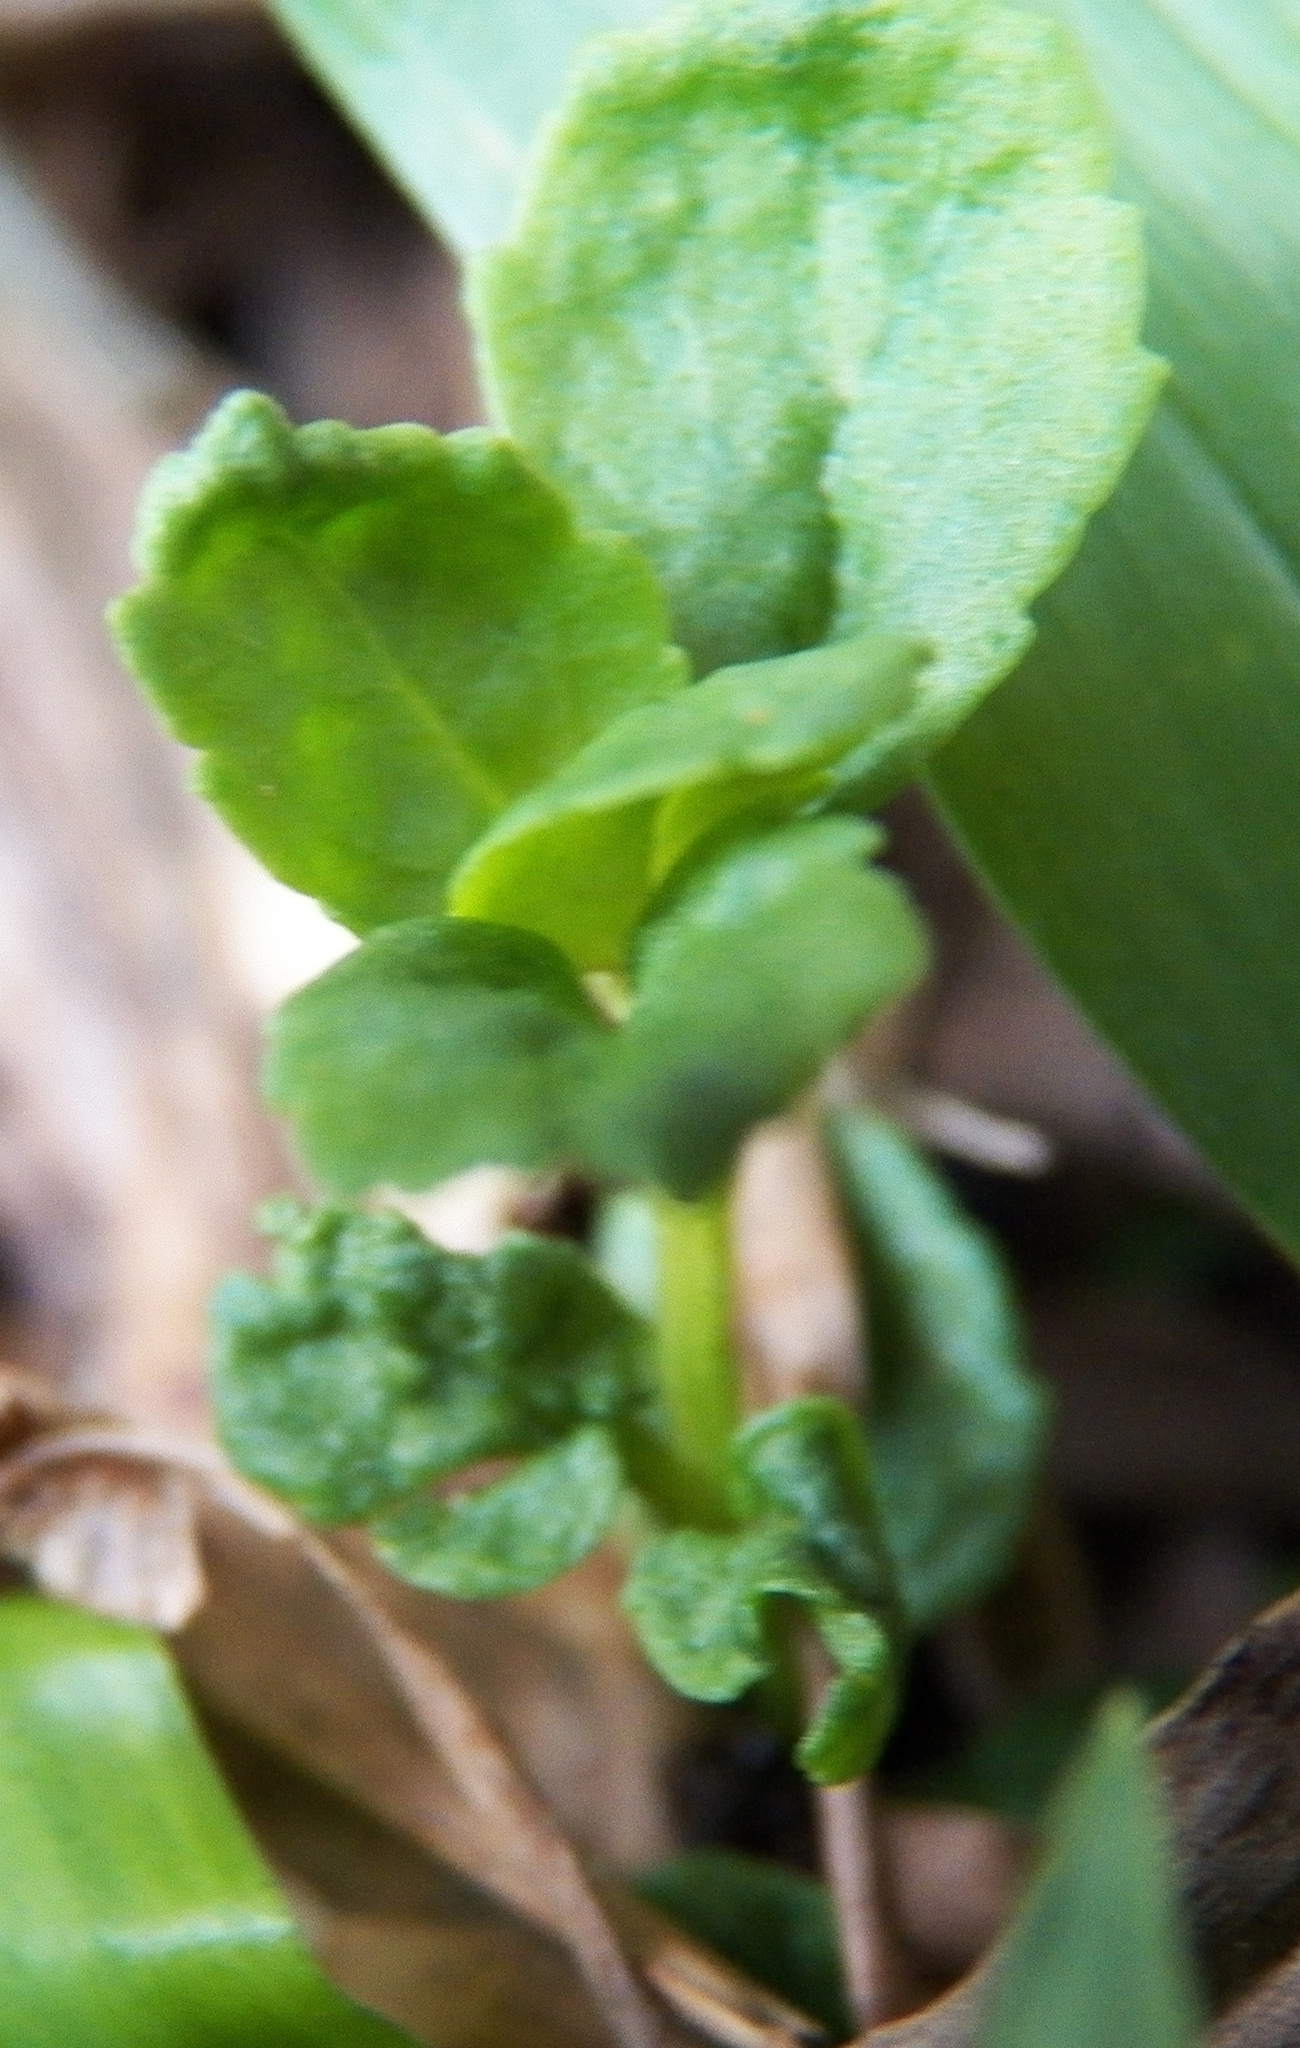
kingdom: Plantae
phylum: Tracheophyta
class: Magnoliopsida
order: Lamiales
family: Plantaginaceae
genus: Mecardonia
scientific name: Mecardonia procumbens
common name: Baby jump-up
